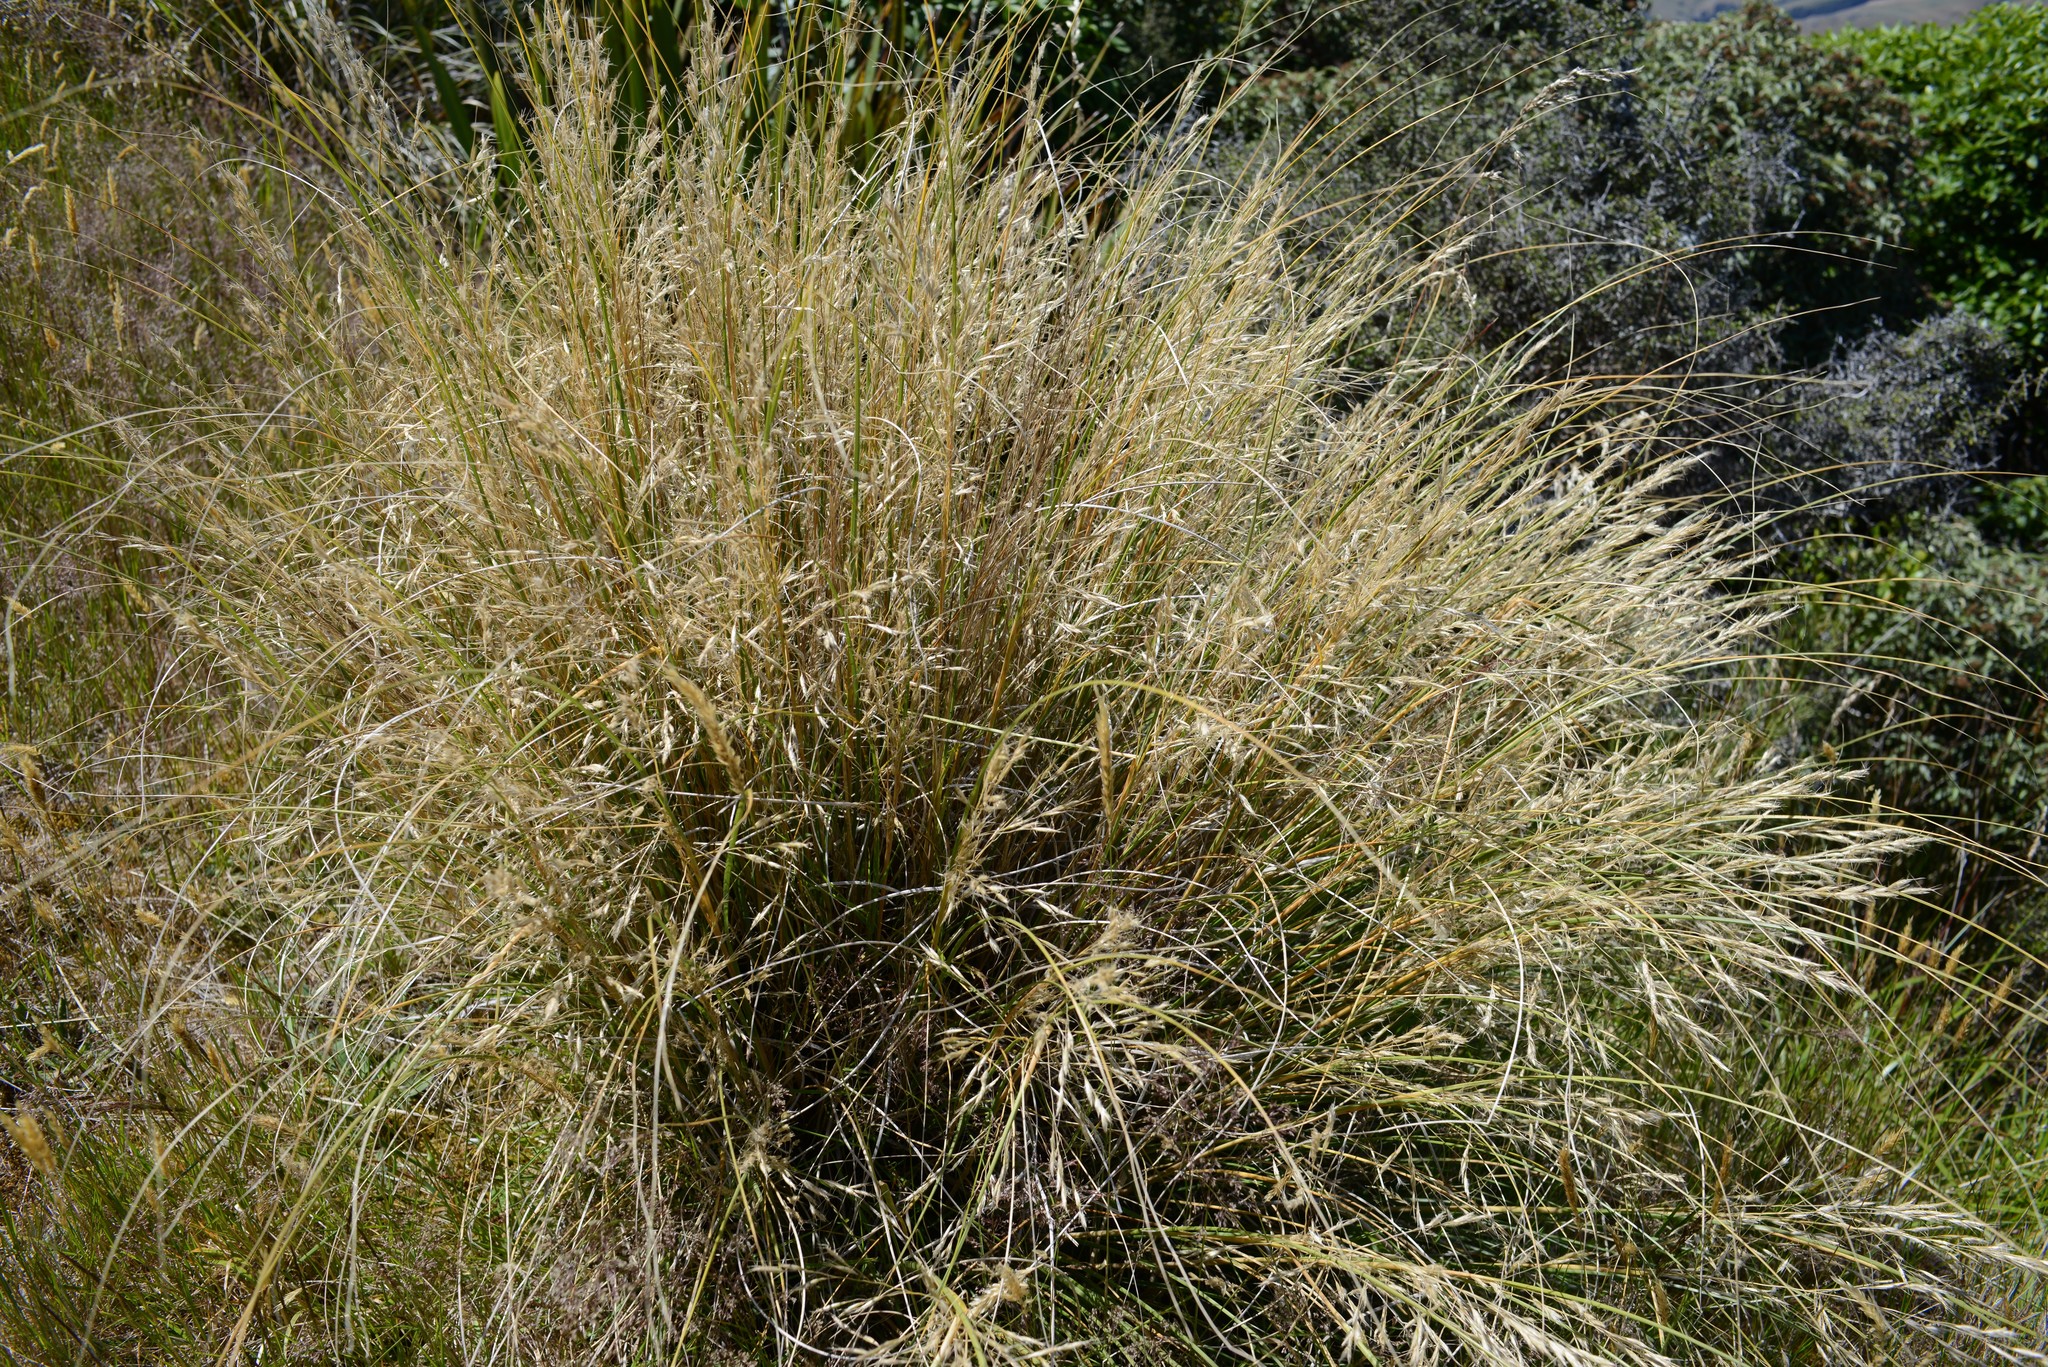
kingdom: Plantae
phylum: Tracheophyta
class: Liliopsida
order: Poales
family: Poaceae
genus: Chionochloa
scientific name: Chionochloa rigida
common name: Narrow leaved snow tussock
